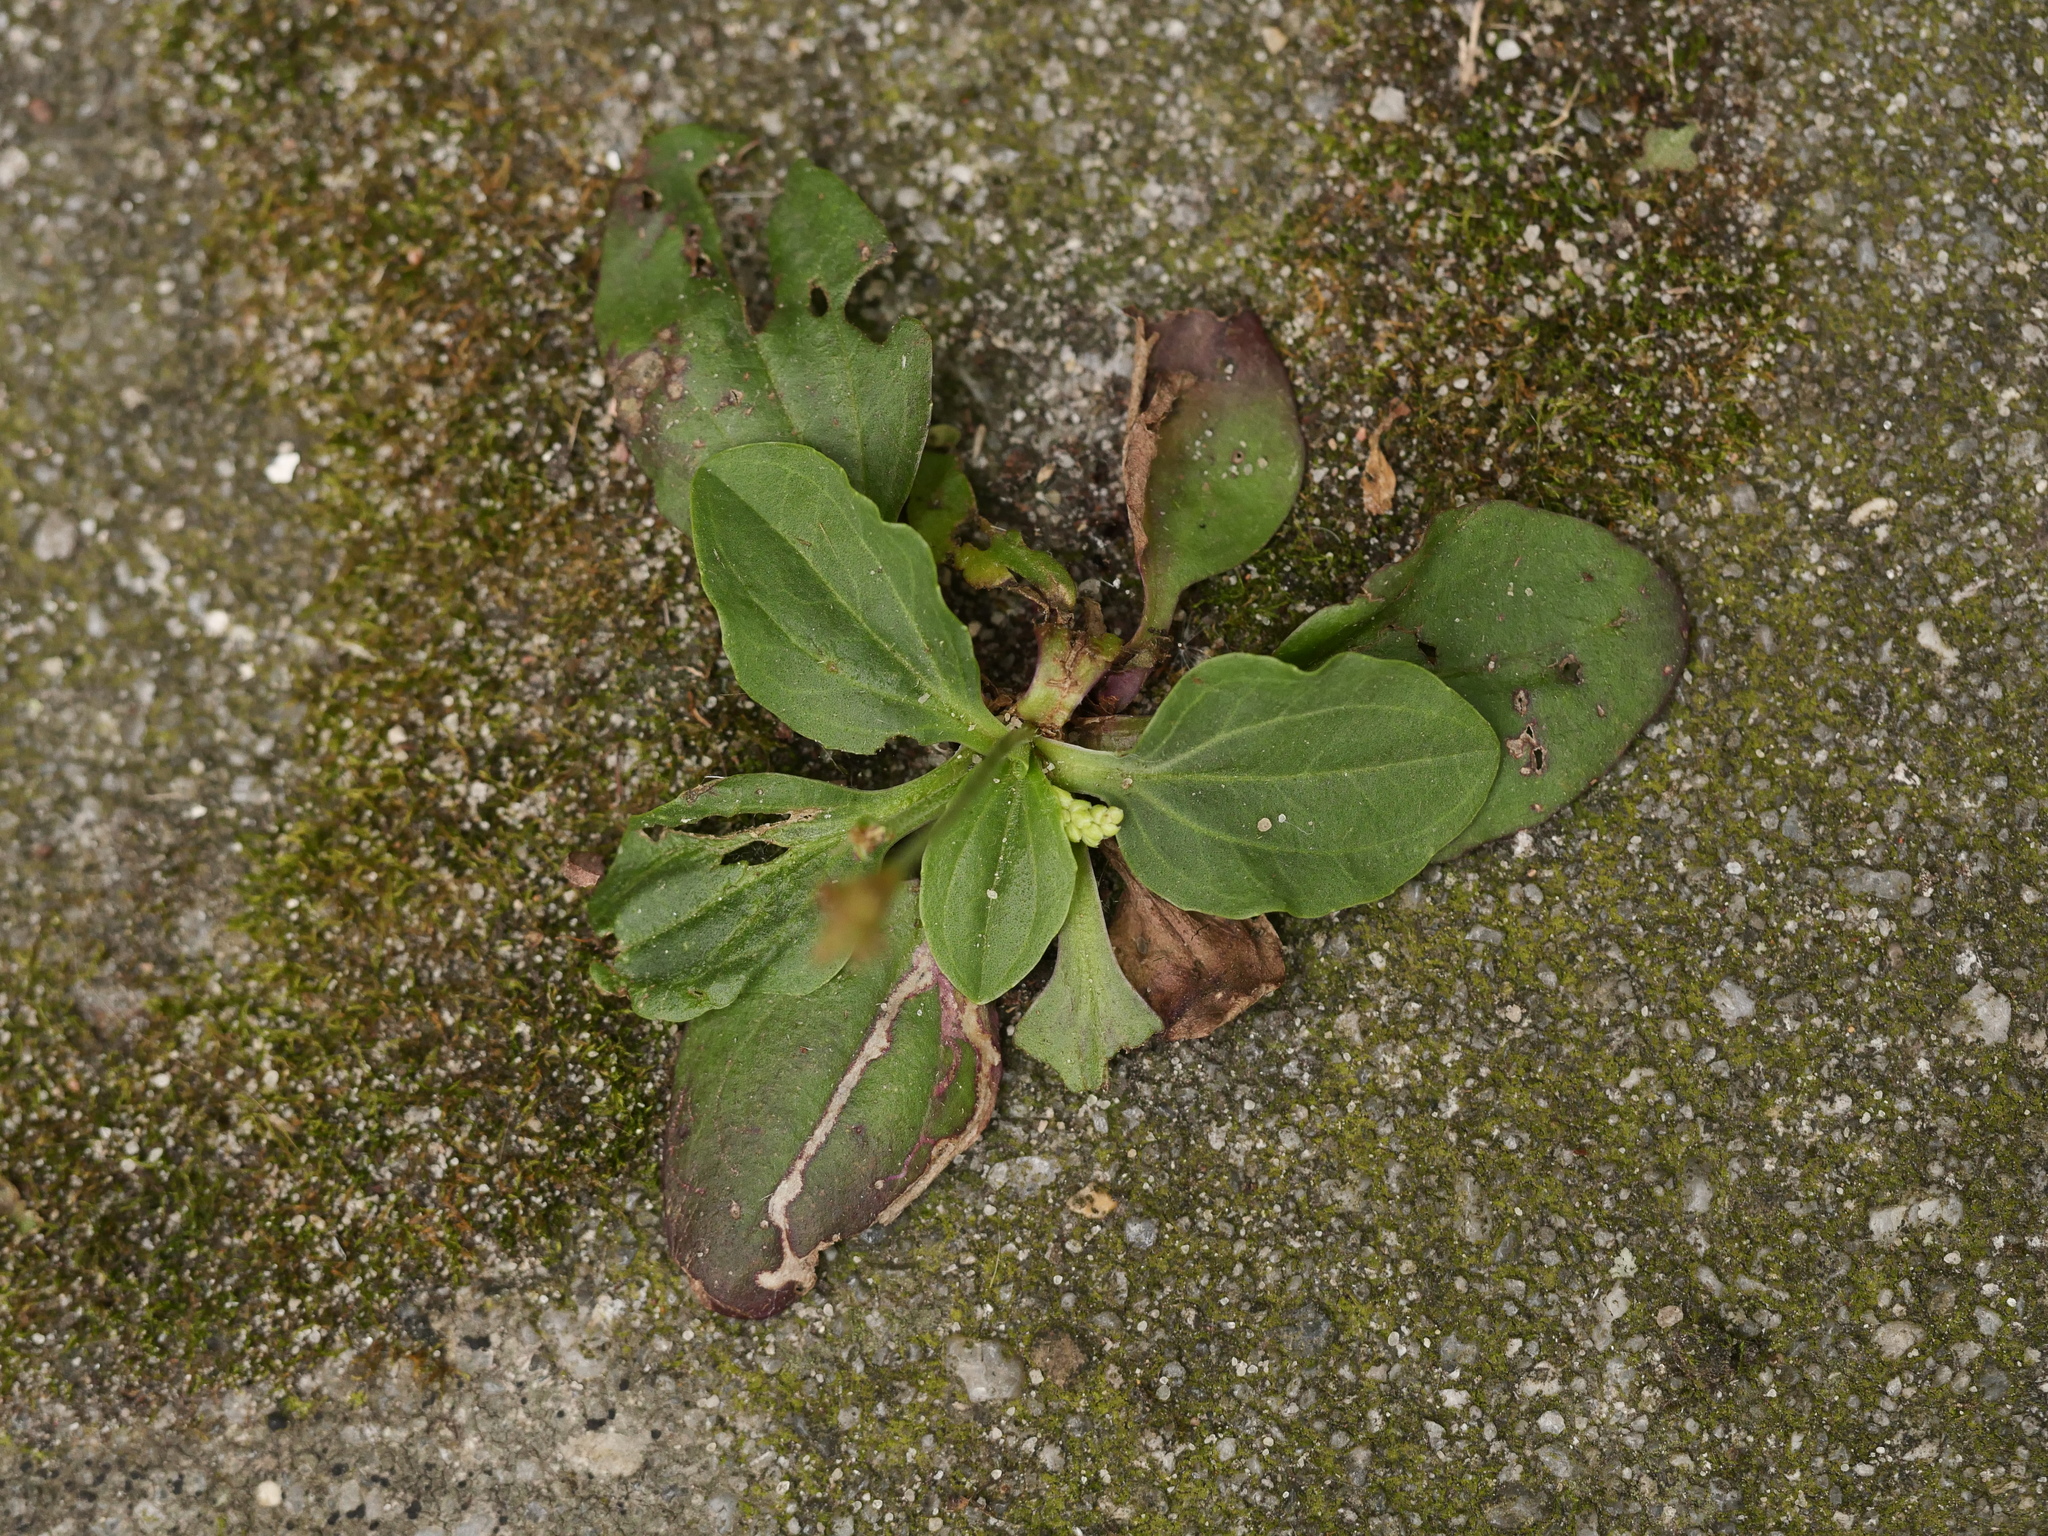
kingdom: Plantae
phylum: Tracheophyta
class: Magnoliopsida
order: Lamiales
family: Plantaginaceae
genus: Plantago
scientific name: Plantago major
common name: Common plantain
